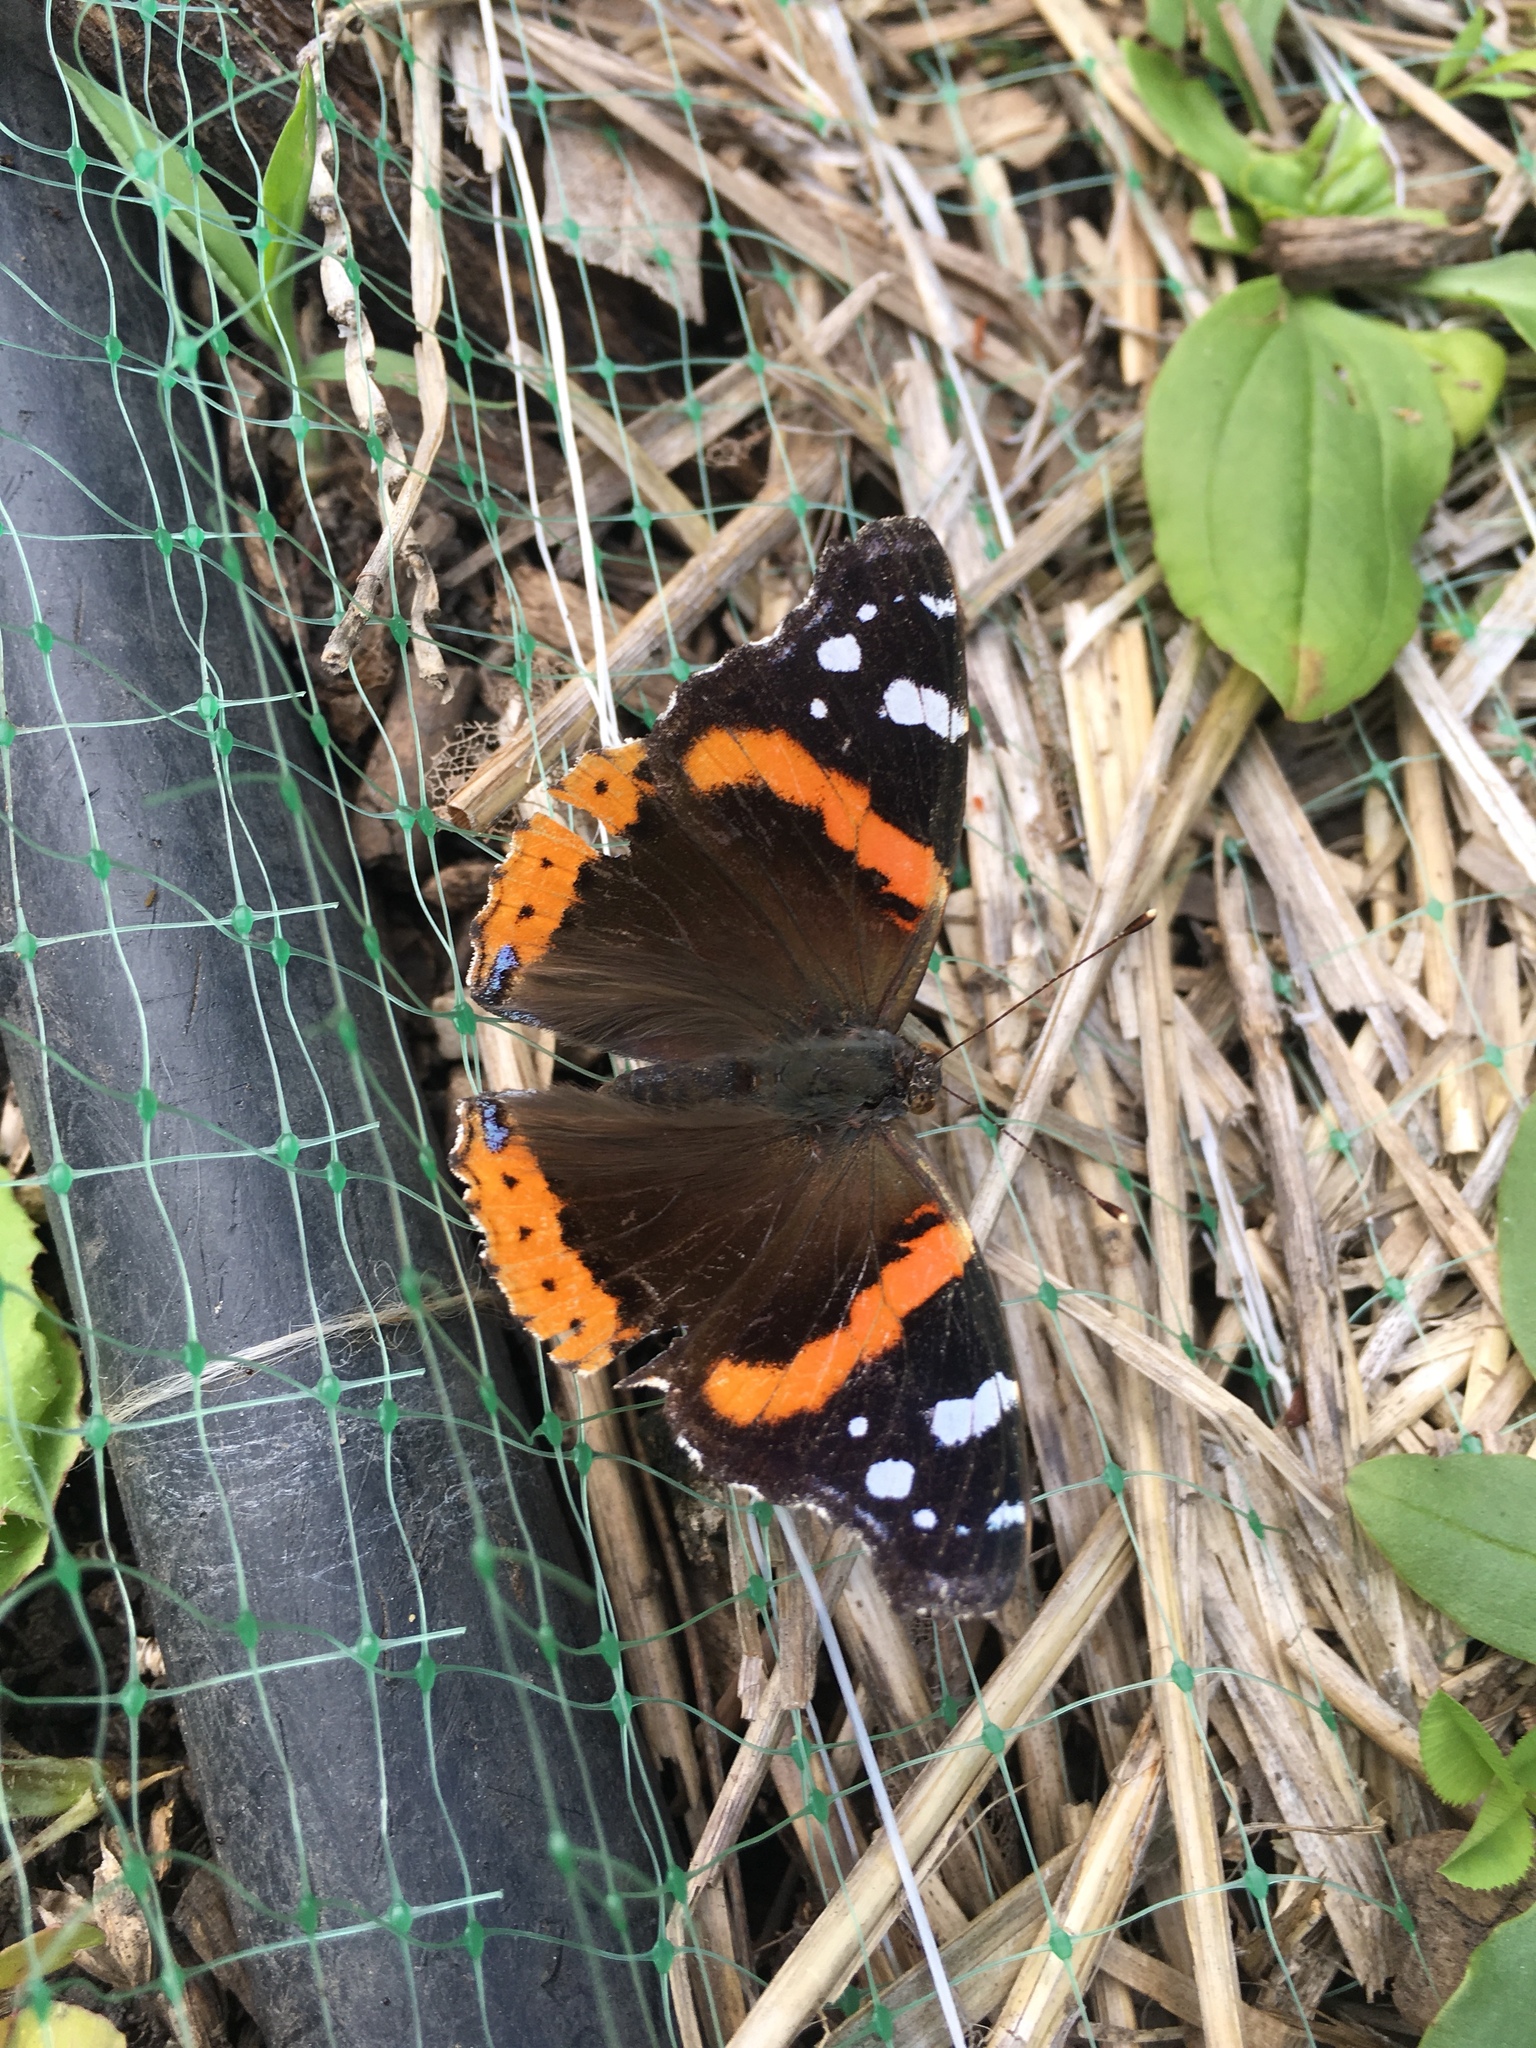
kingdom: Animalia
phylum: Arthropoda
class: Insecta
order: Lepidoptera
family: Nymphalidae
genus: Vanessa
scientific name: Vanessa atalanta
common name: Red admiral
